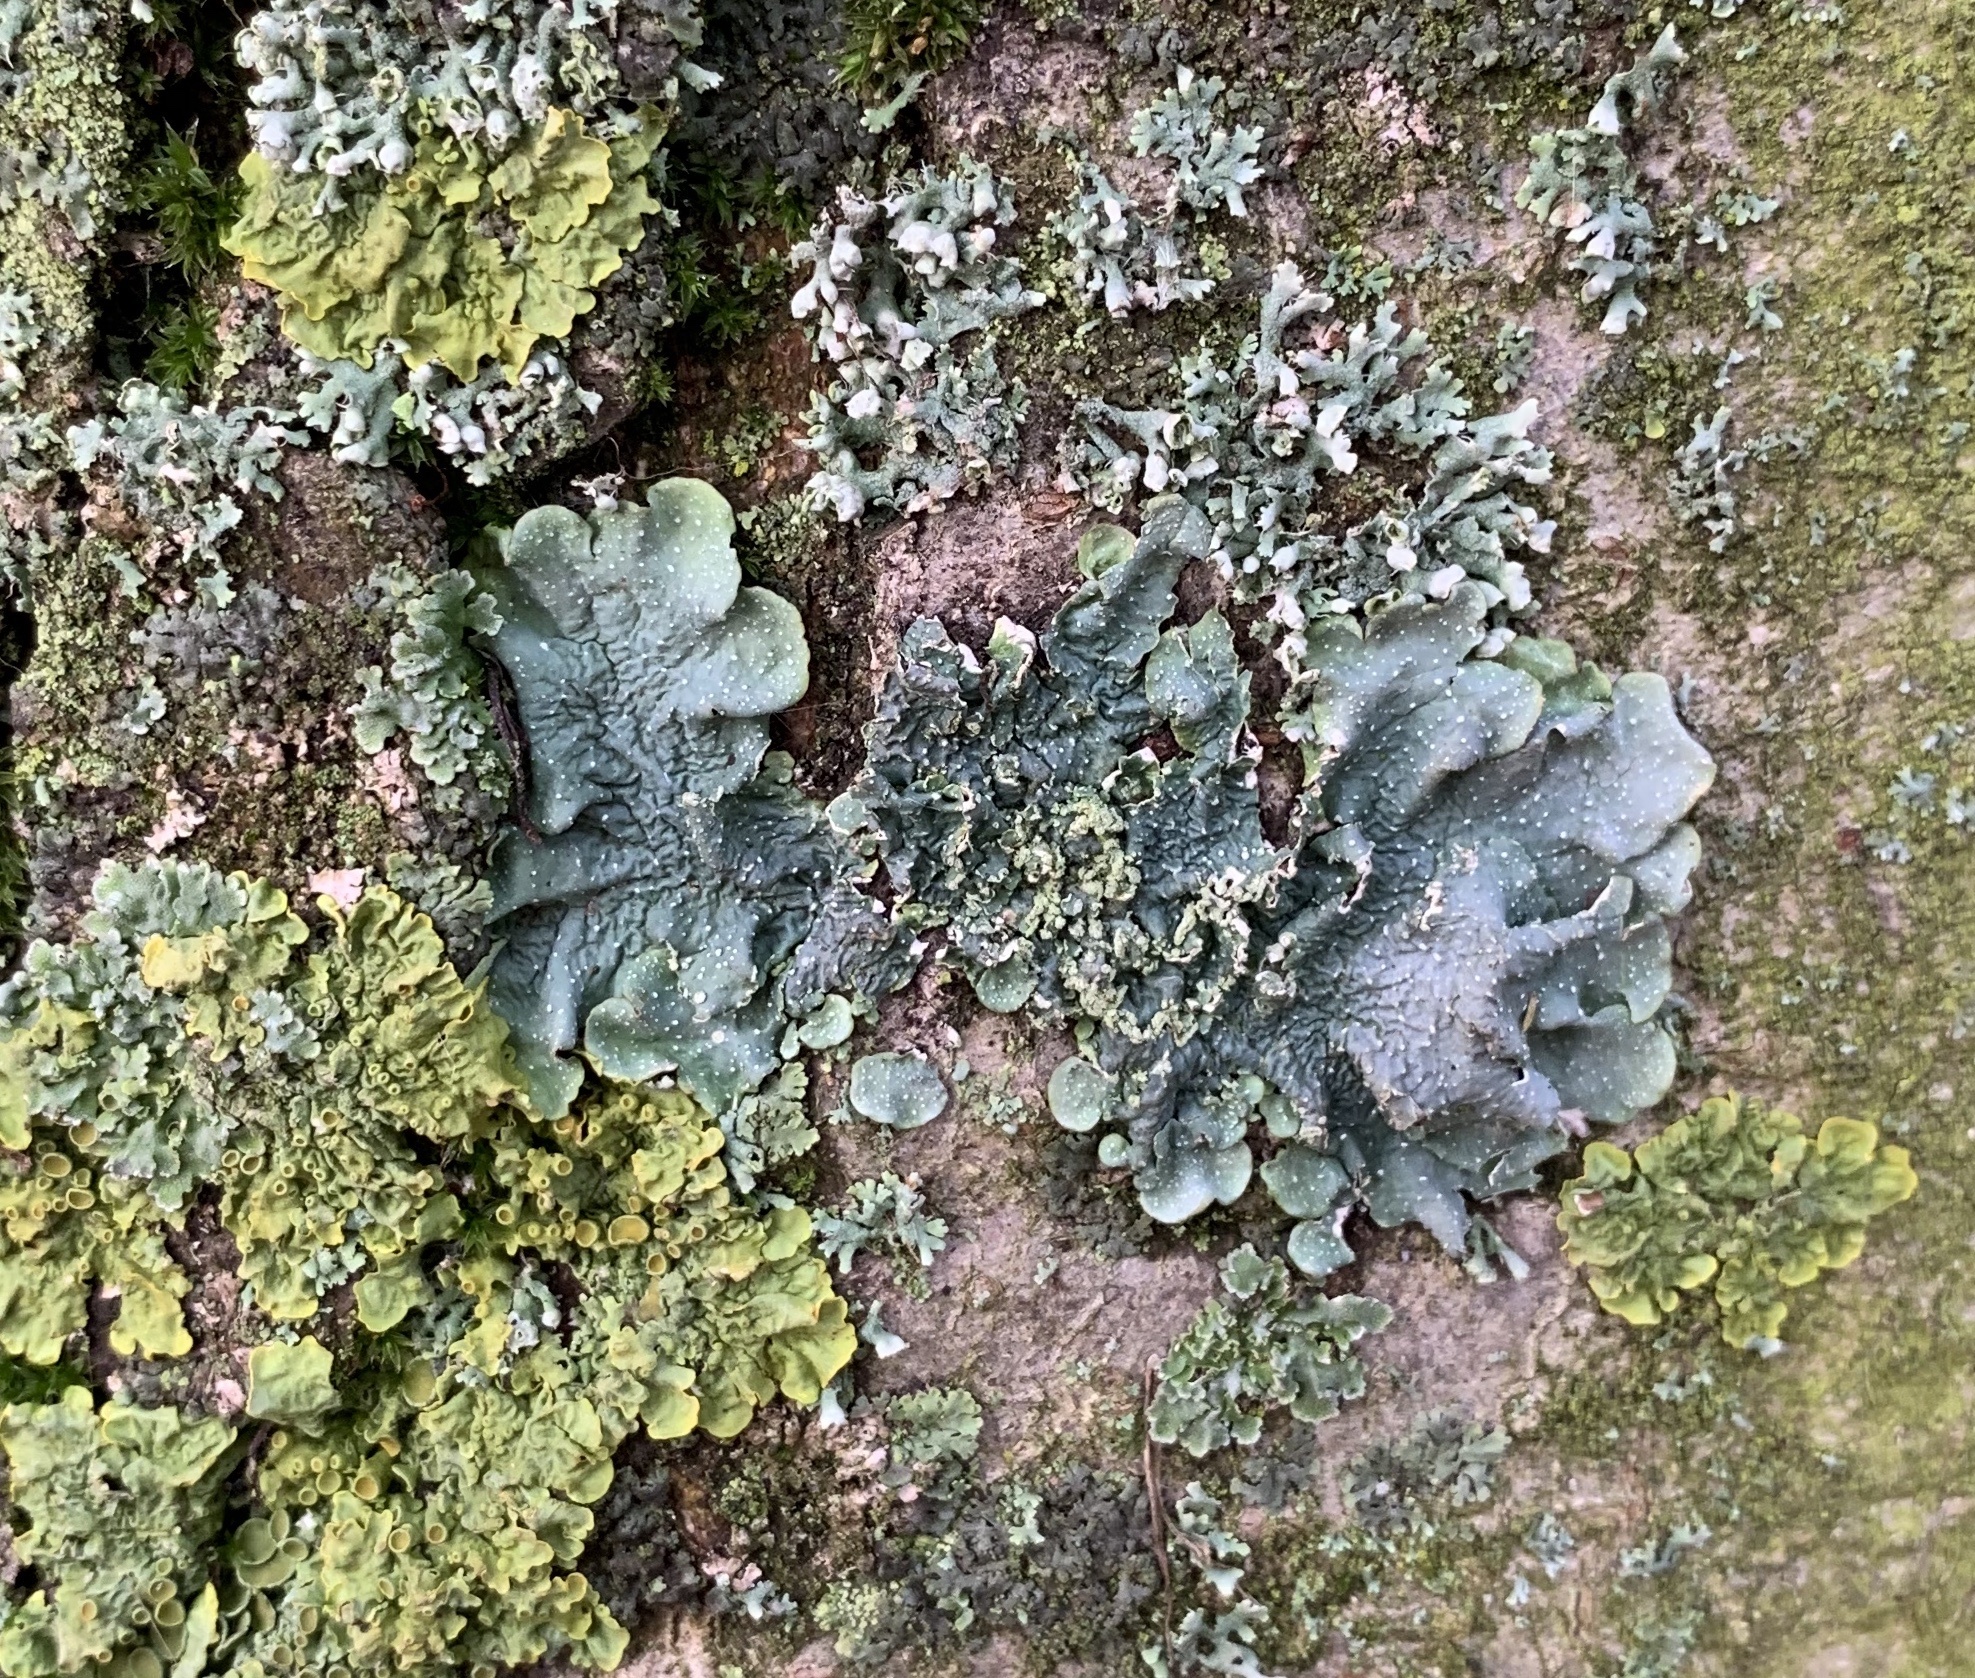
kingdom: Fungi
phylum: Ascomycota
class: Lecanoromycetes
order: Lecanorales
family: Parmeliaceae
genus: Punctelia
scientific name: Punctelia
